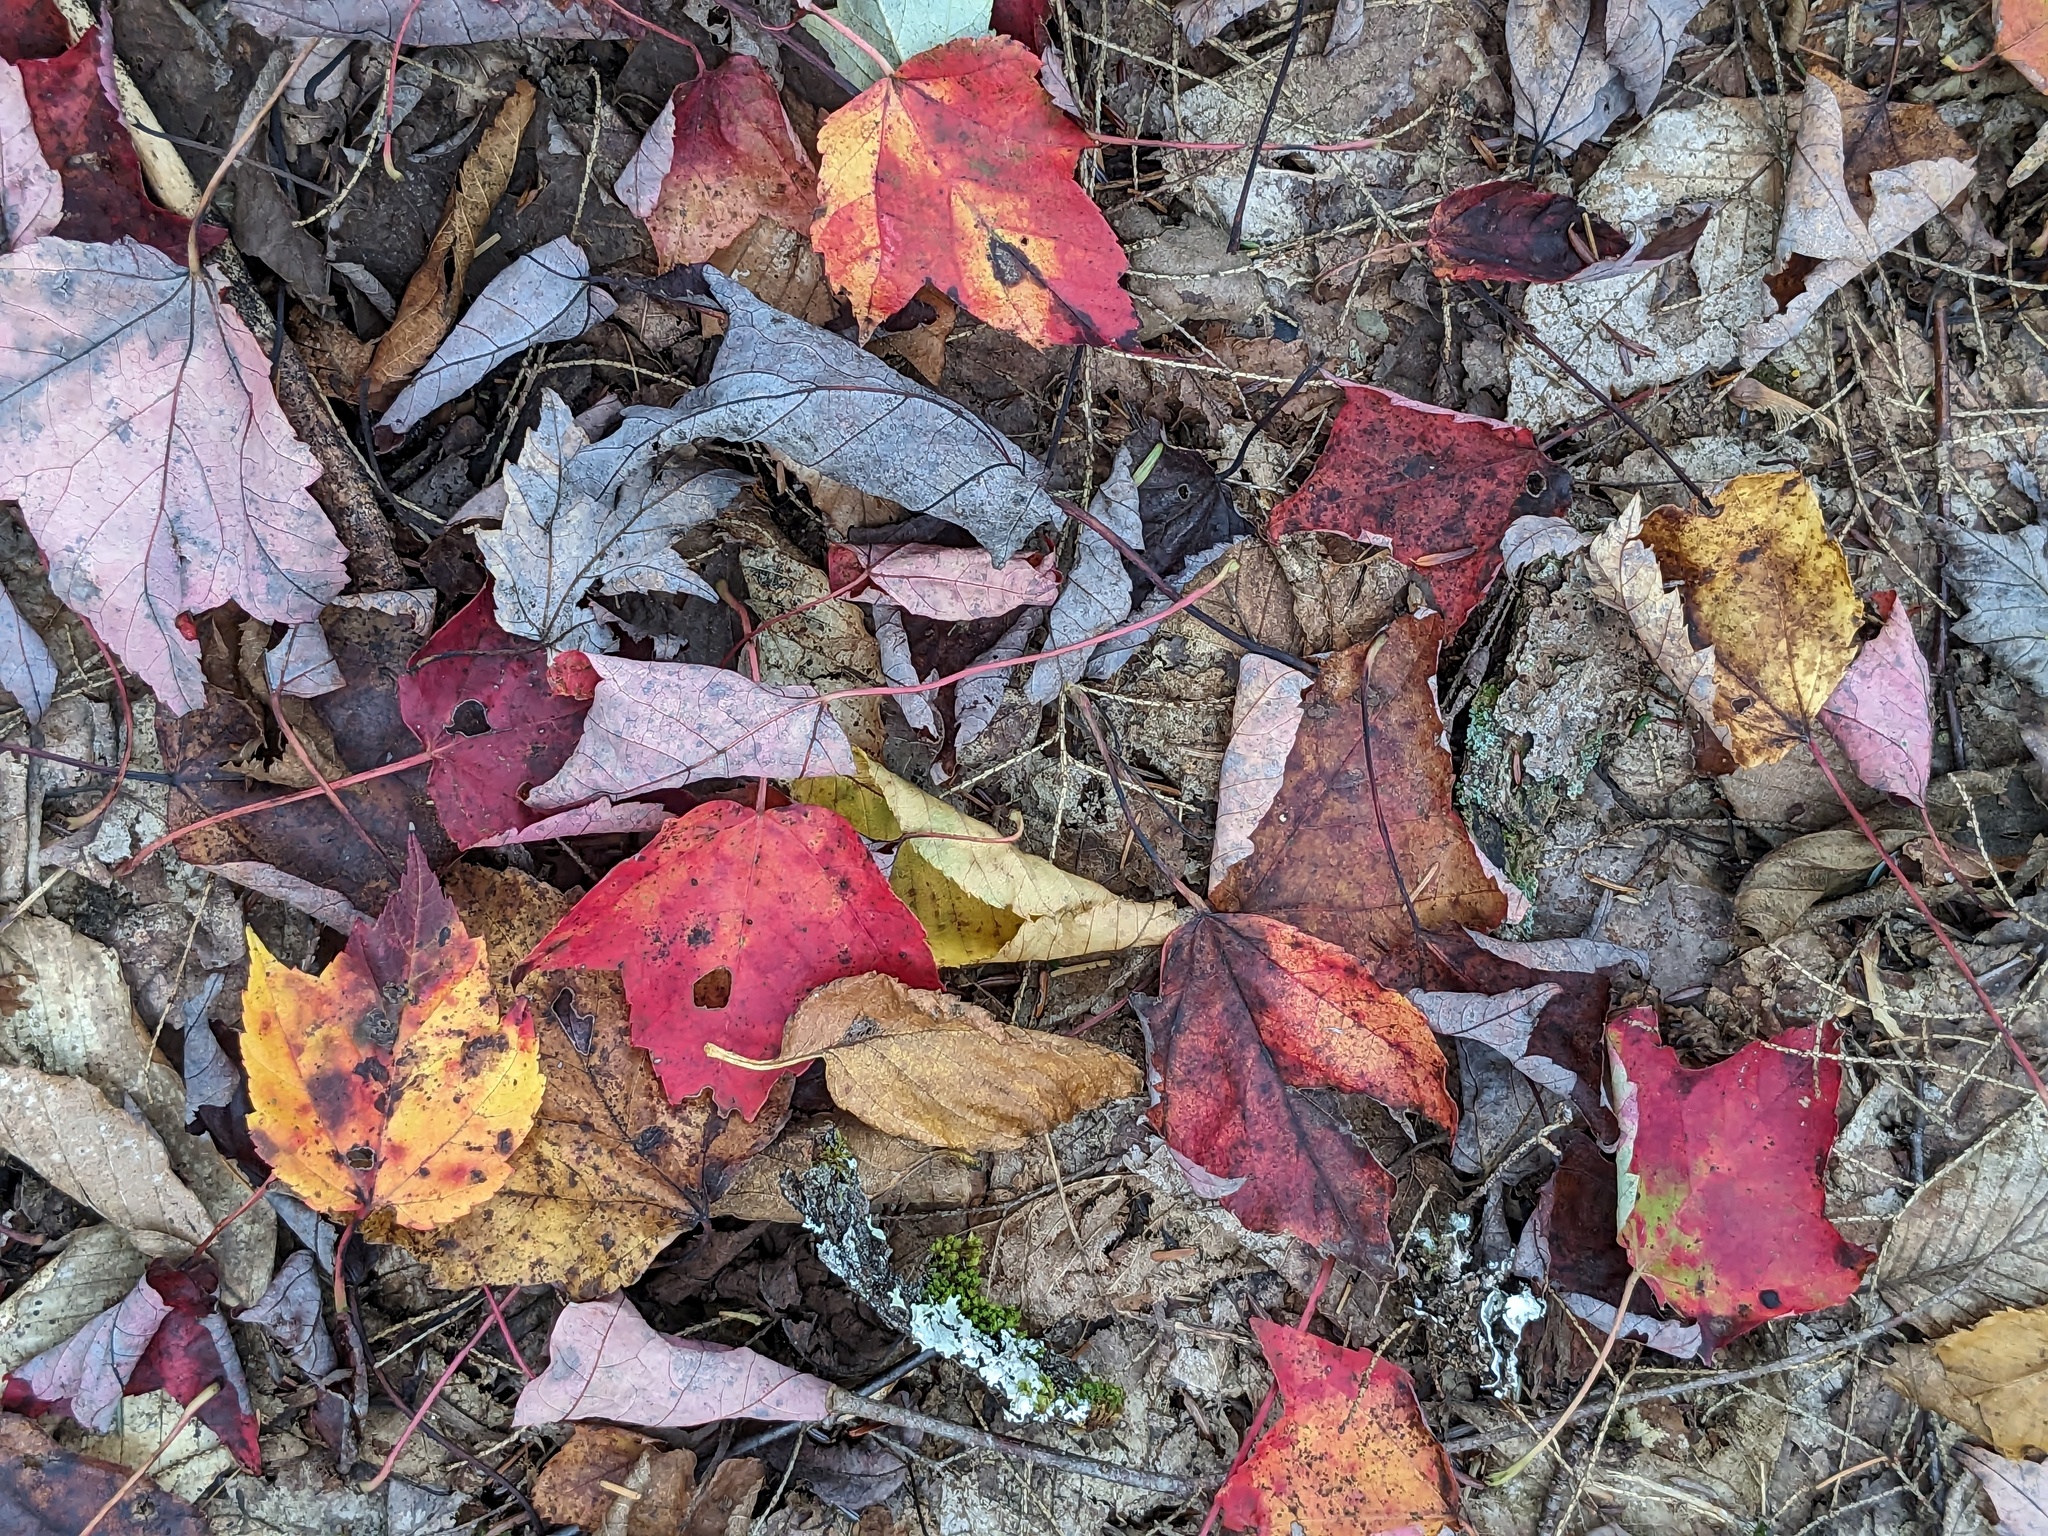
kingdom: Plantae
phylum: Tracheophyta
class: Magnoliopsida
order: Sapindales
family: Sapindaceae
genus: Acer
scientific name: Acer rubrum
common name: Red maple
